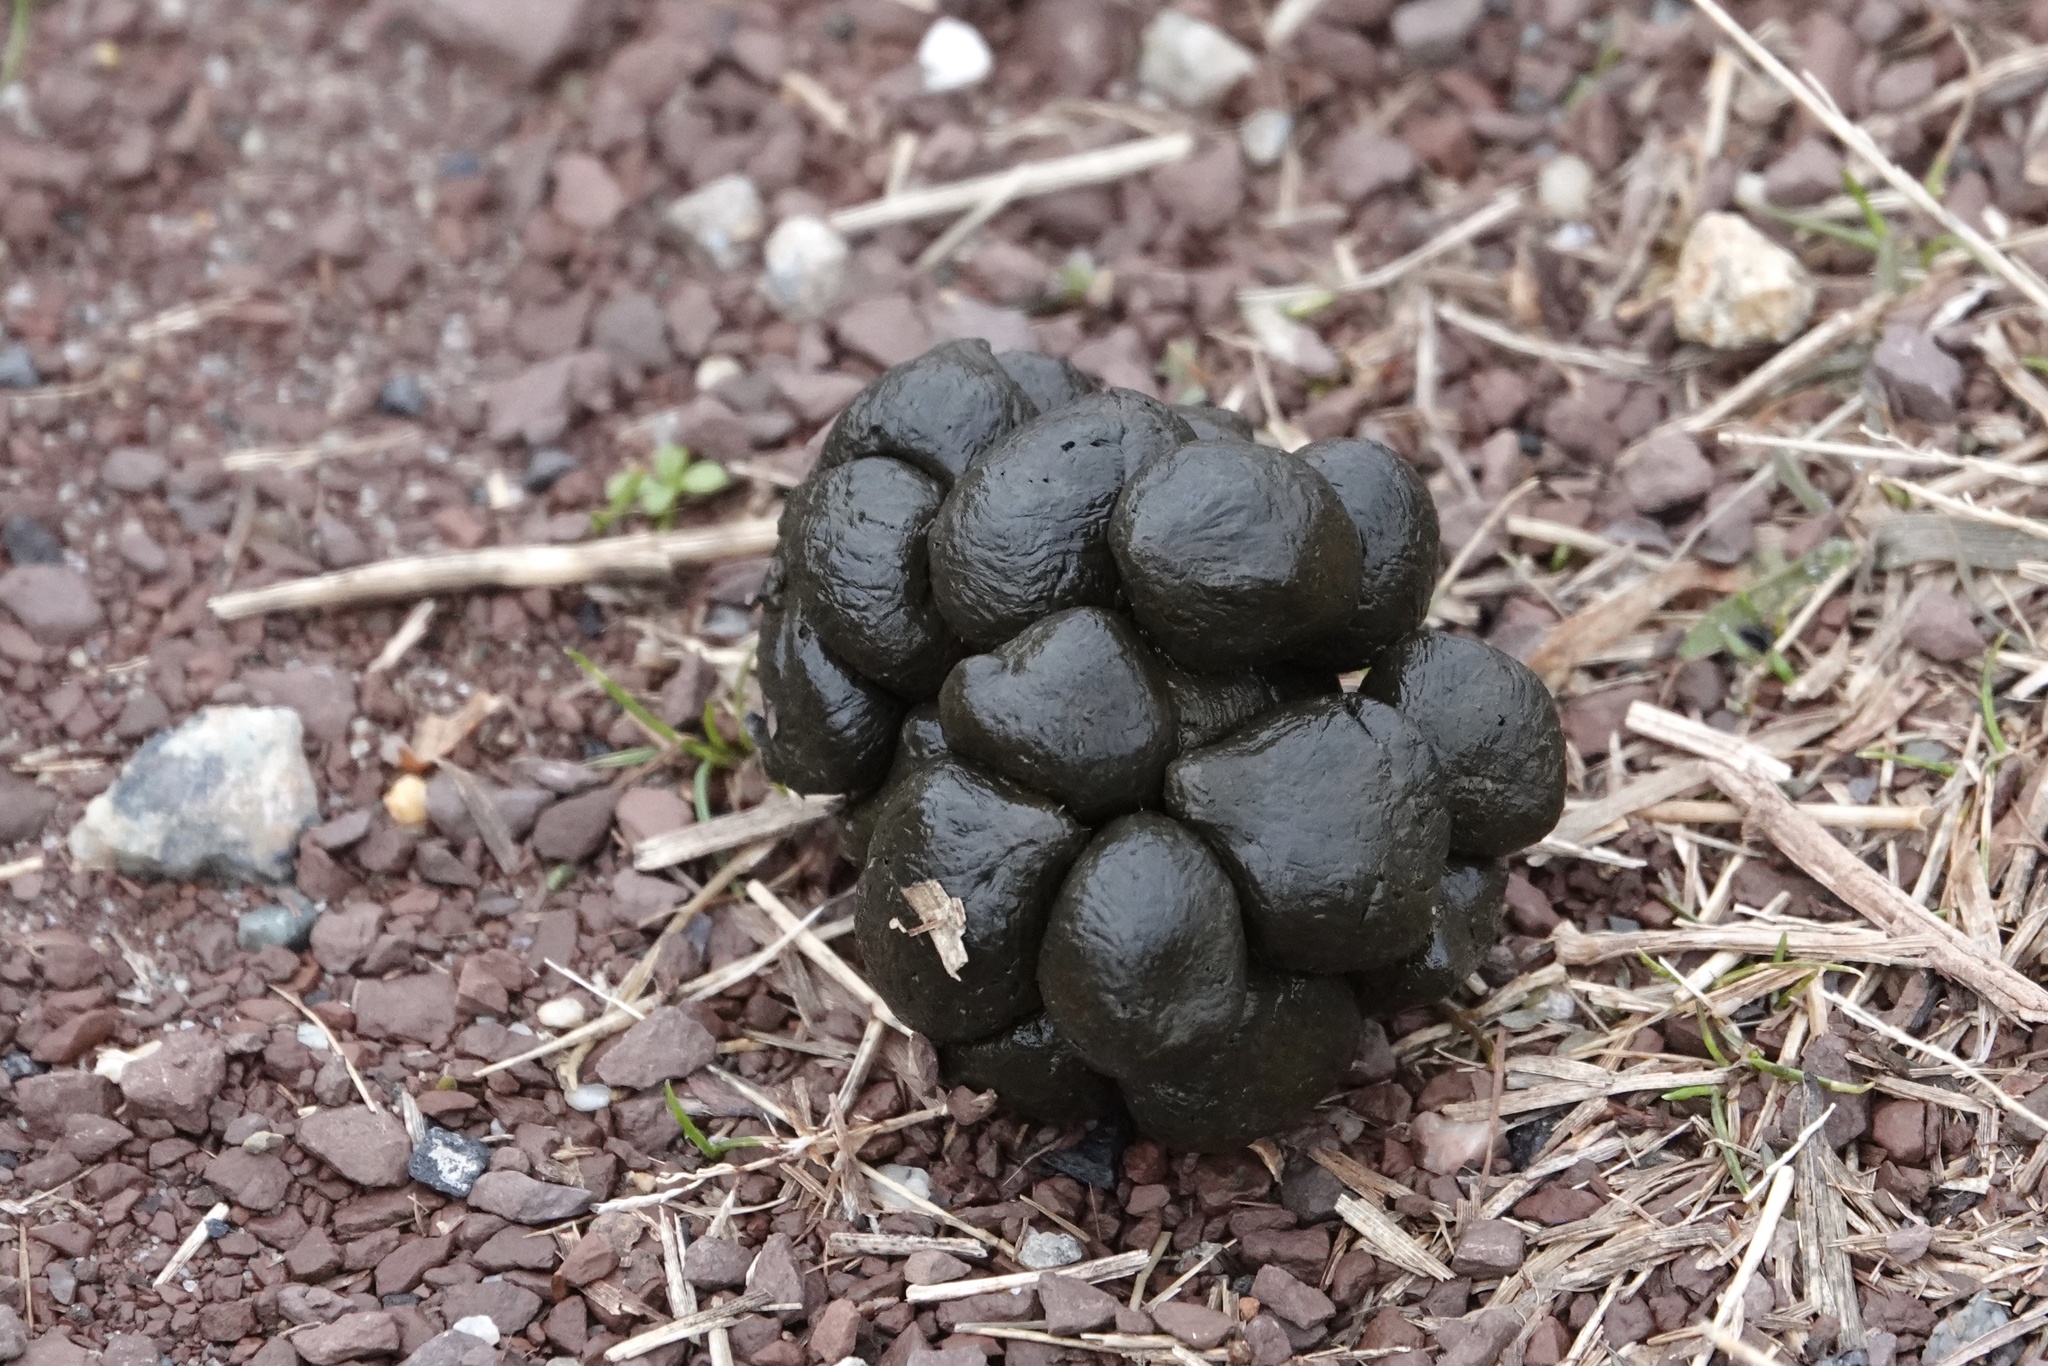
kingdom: Animalia
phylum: Chordata
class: Mammalia
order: Artiodactyla
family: Cervidae
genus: Odocoileus
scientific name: Odocoileus virginianus
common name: White-tailed deer
